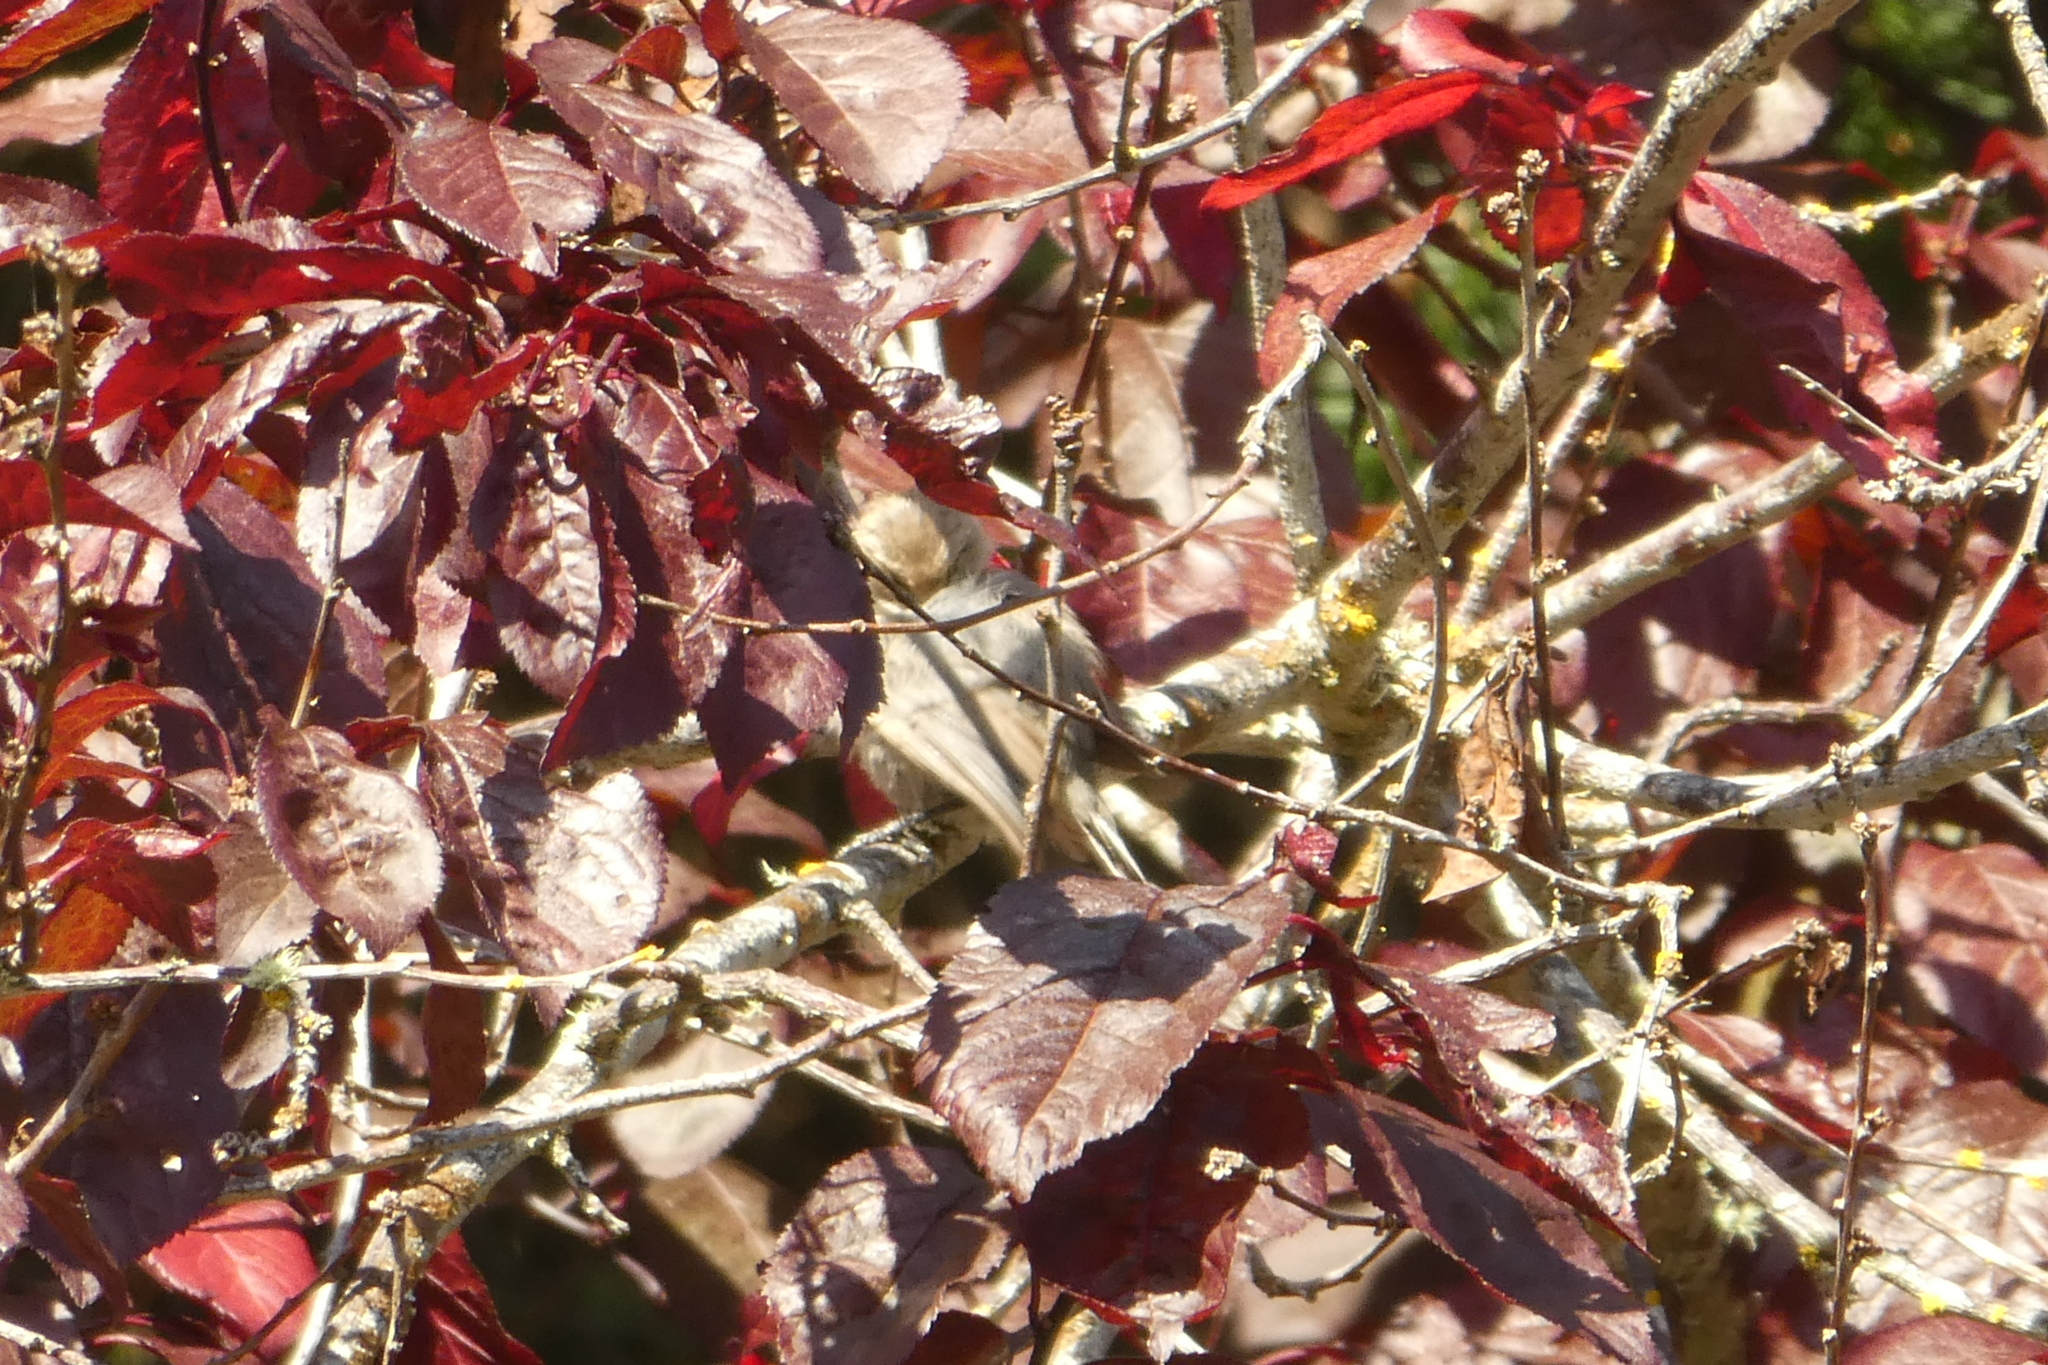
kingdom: Animalia
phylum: Chordata
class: Aves
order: Passeriformes
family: Aegithalidae
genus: Psaltriparus
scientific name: Psaltriparus minimus
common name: American bushtit
